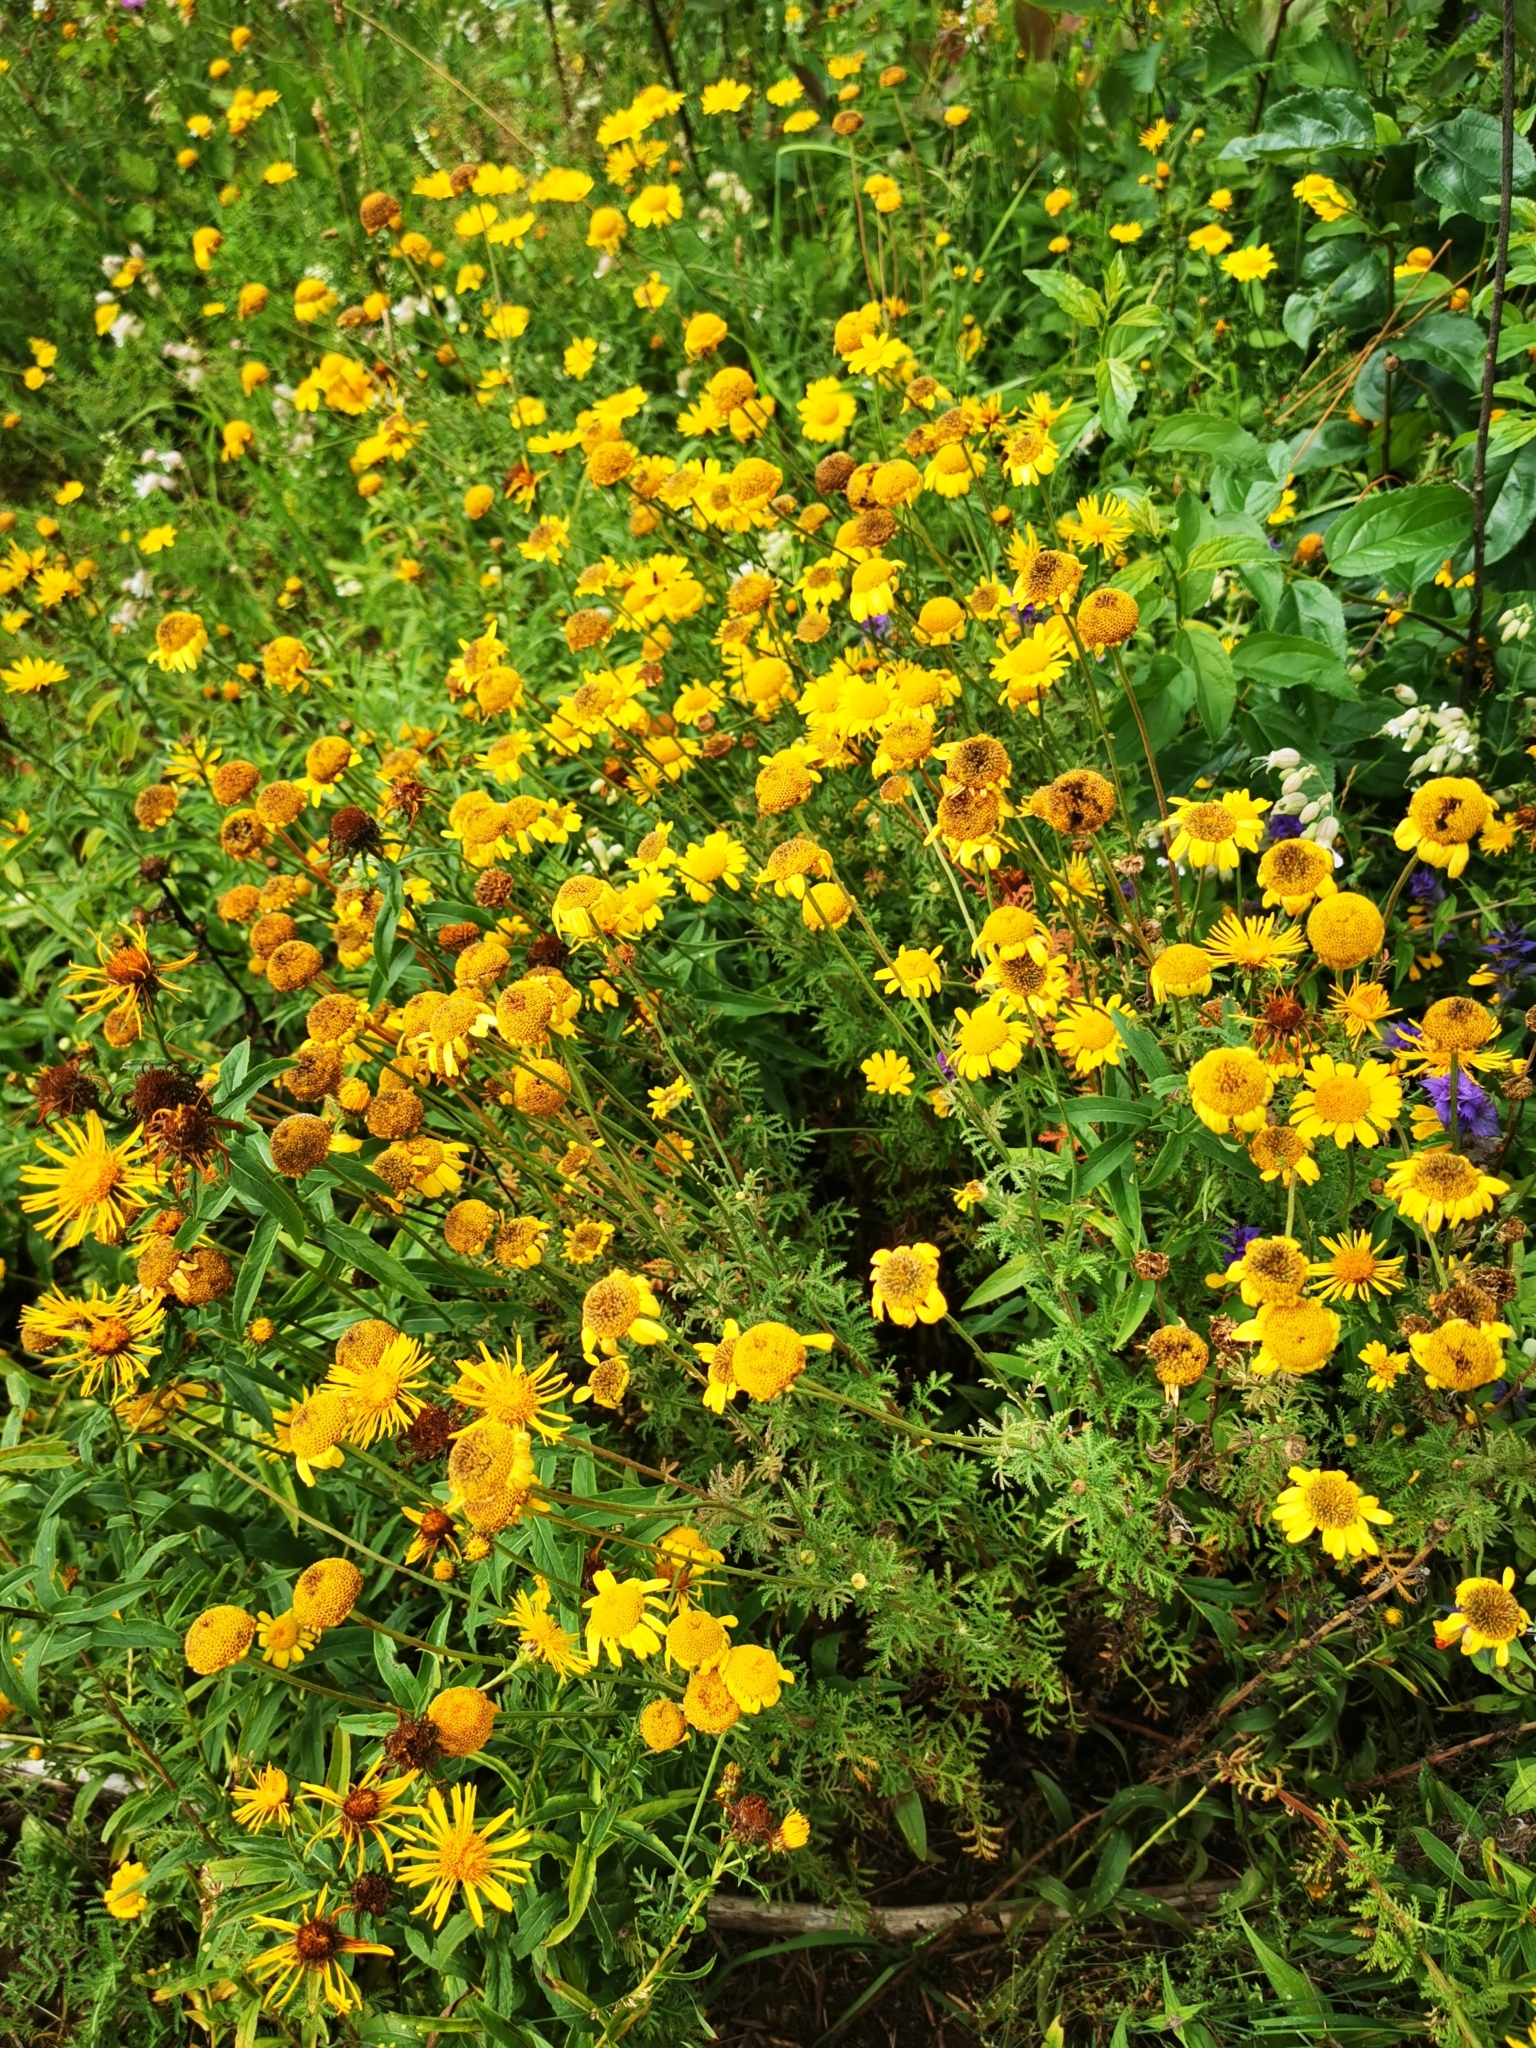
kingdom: Plantae
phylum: Tracheophyta
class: Magnoliopsida
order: Asterales
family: Asteraceae
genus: Cota
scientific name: Cota tinctoria
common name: Golden chamomile
